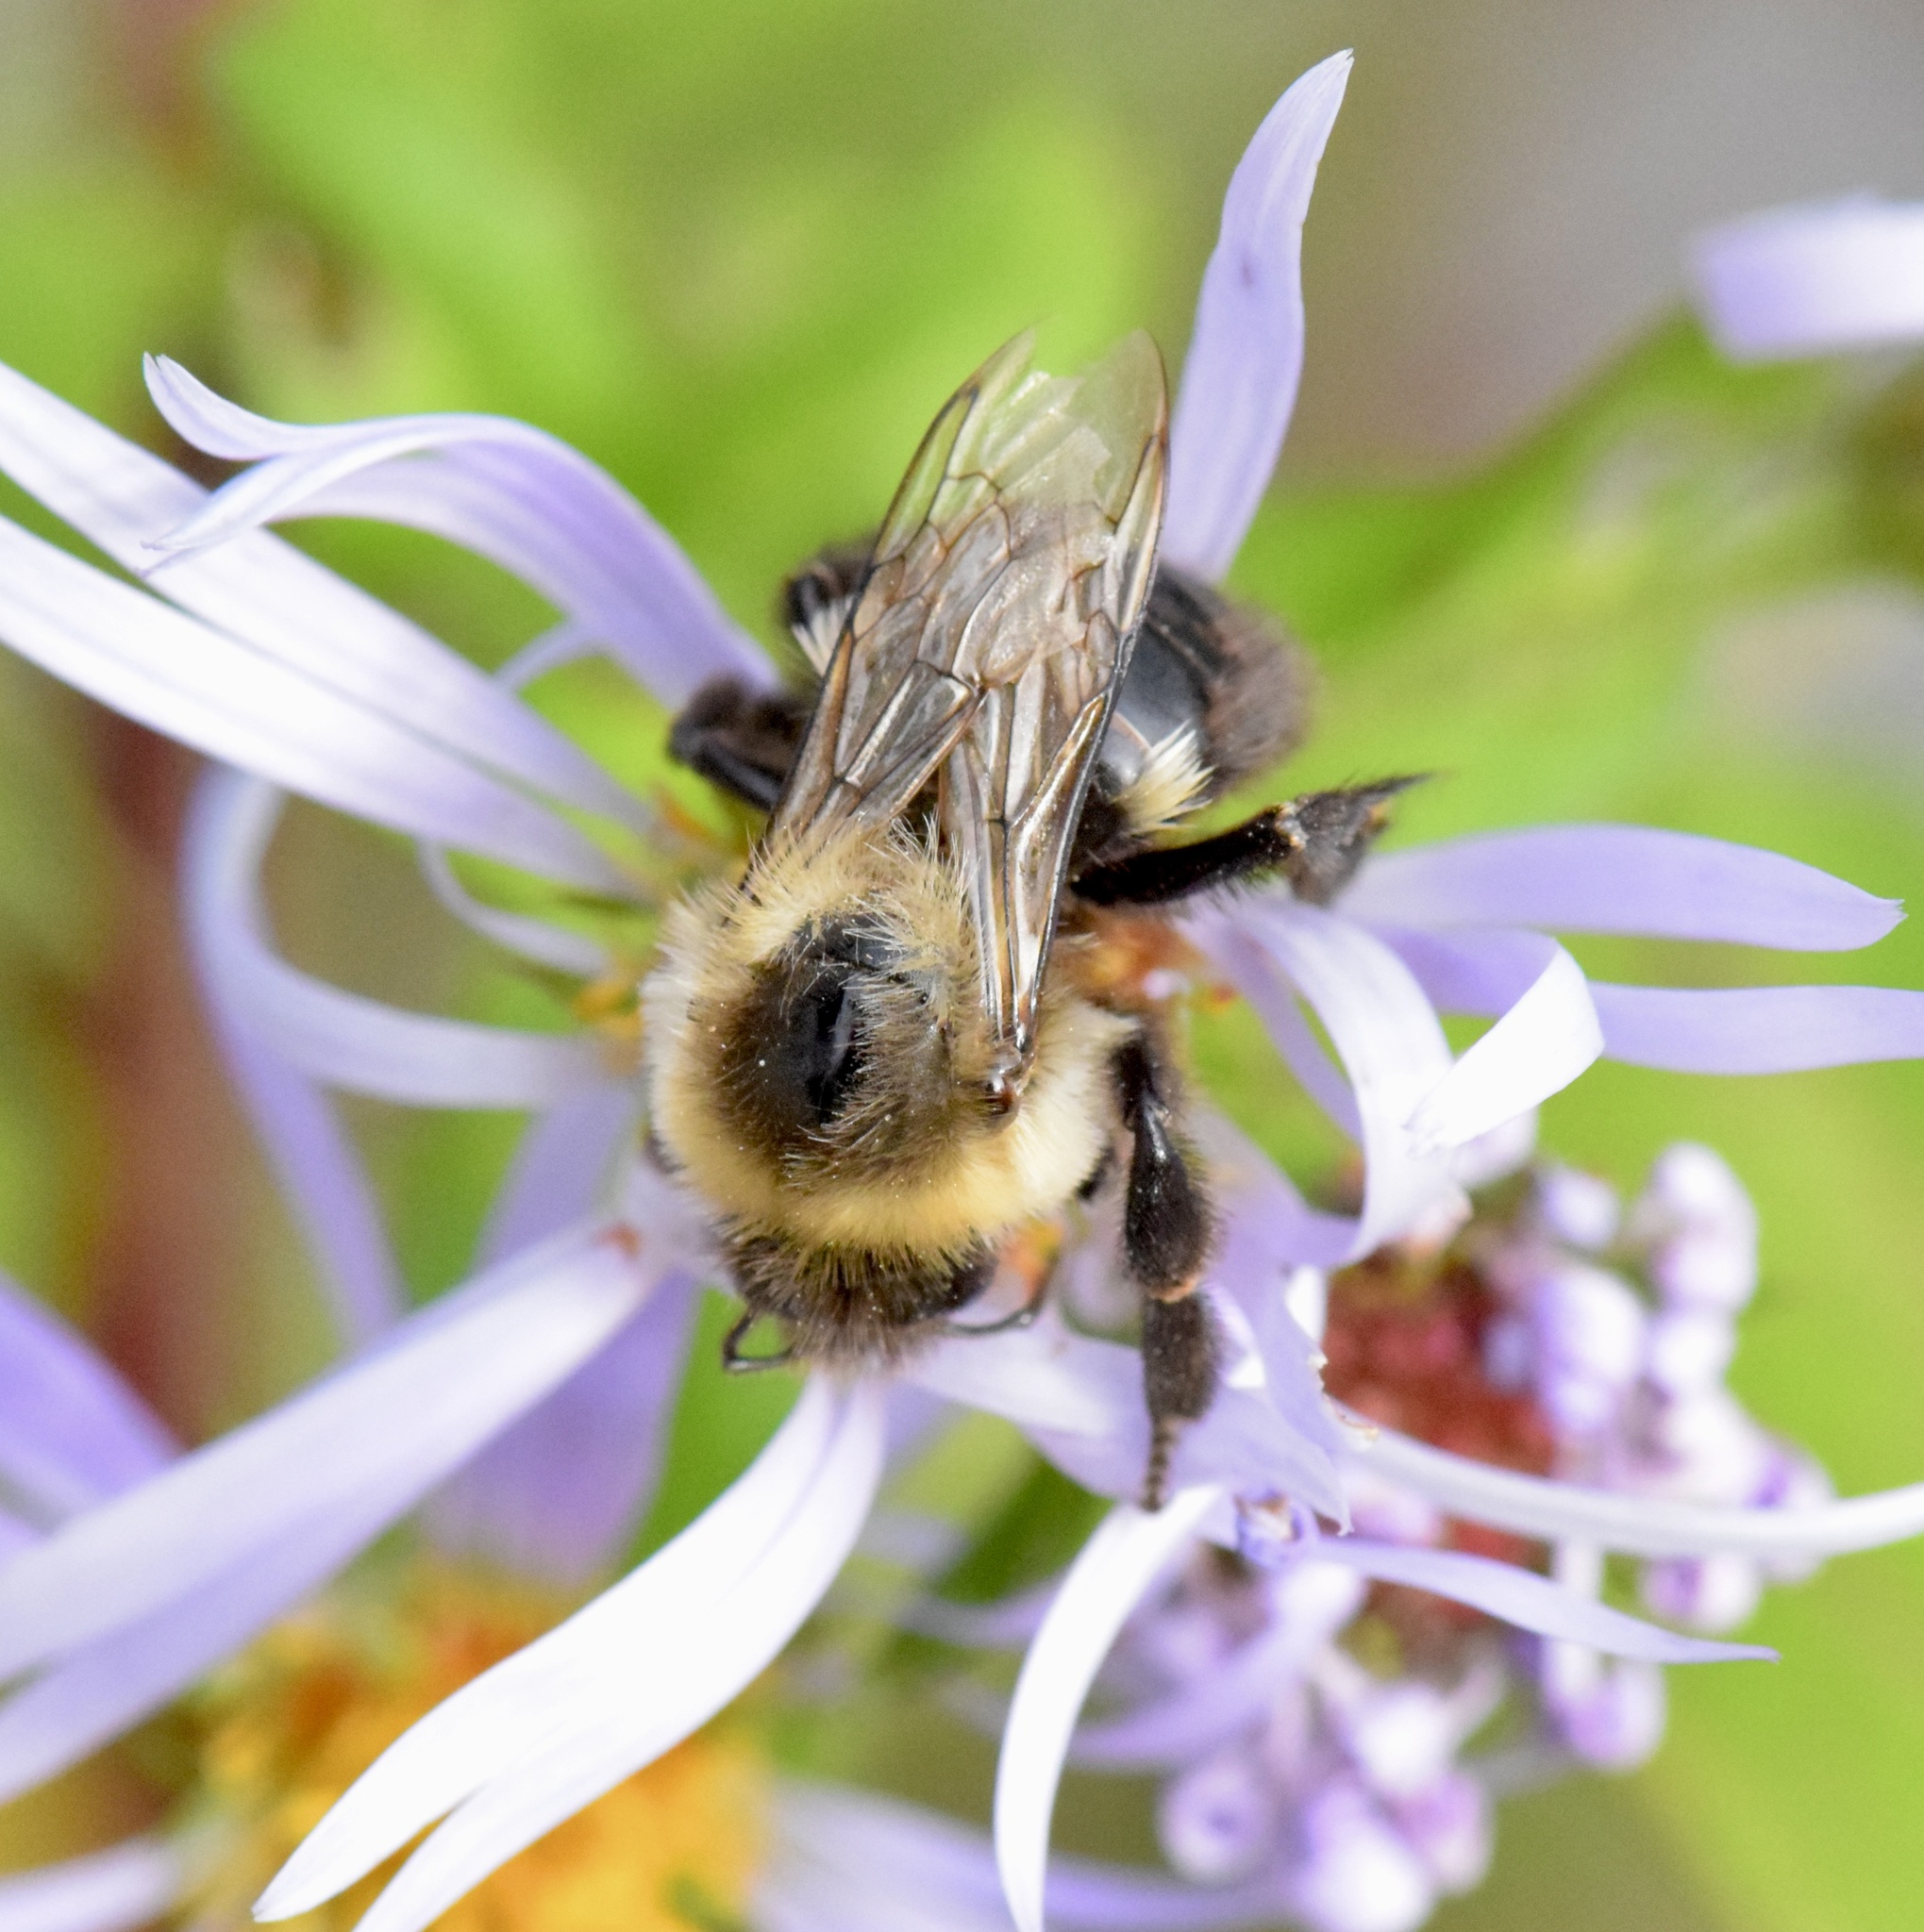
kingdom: Animalia
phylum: Arthropoda
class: Insecta
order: Hymenoptera
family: Apidae
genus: Bombus
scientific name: Bombus impatiens
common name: Common eastern bumble bee
